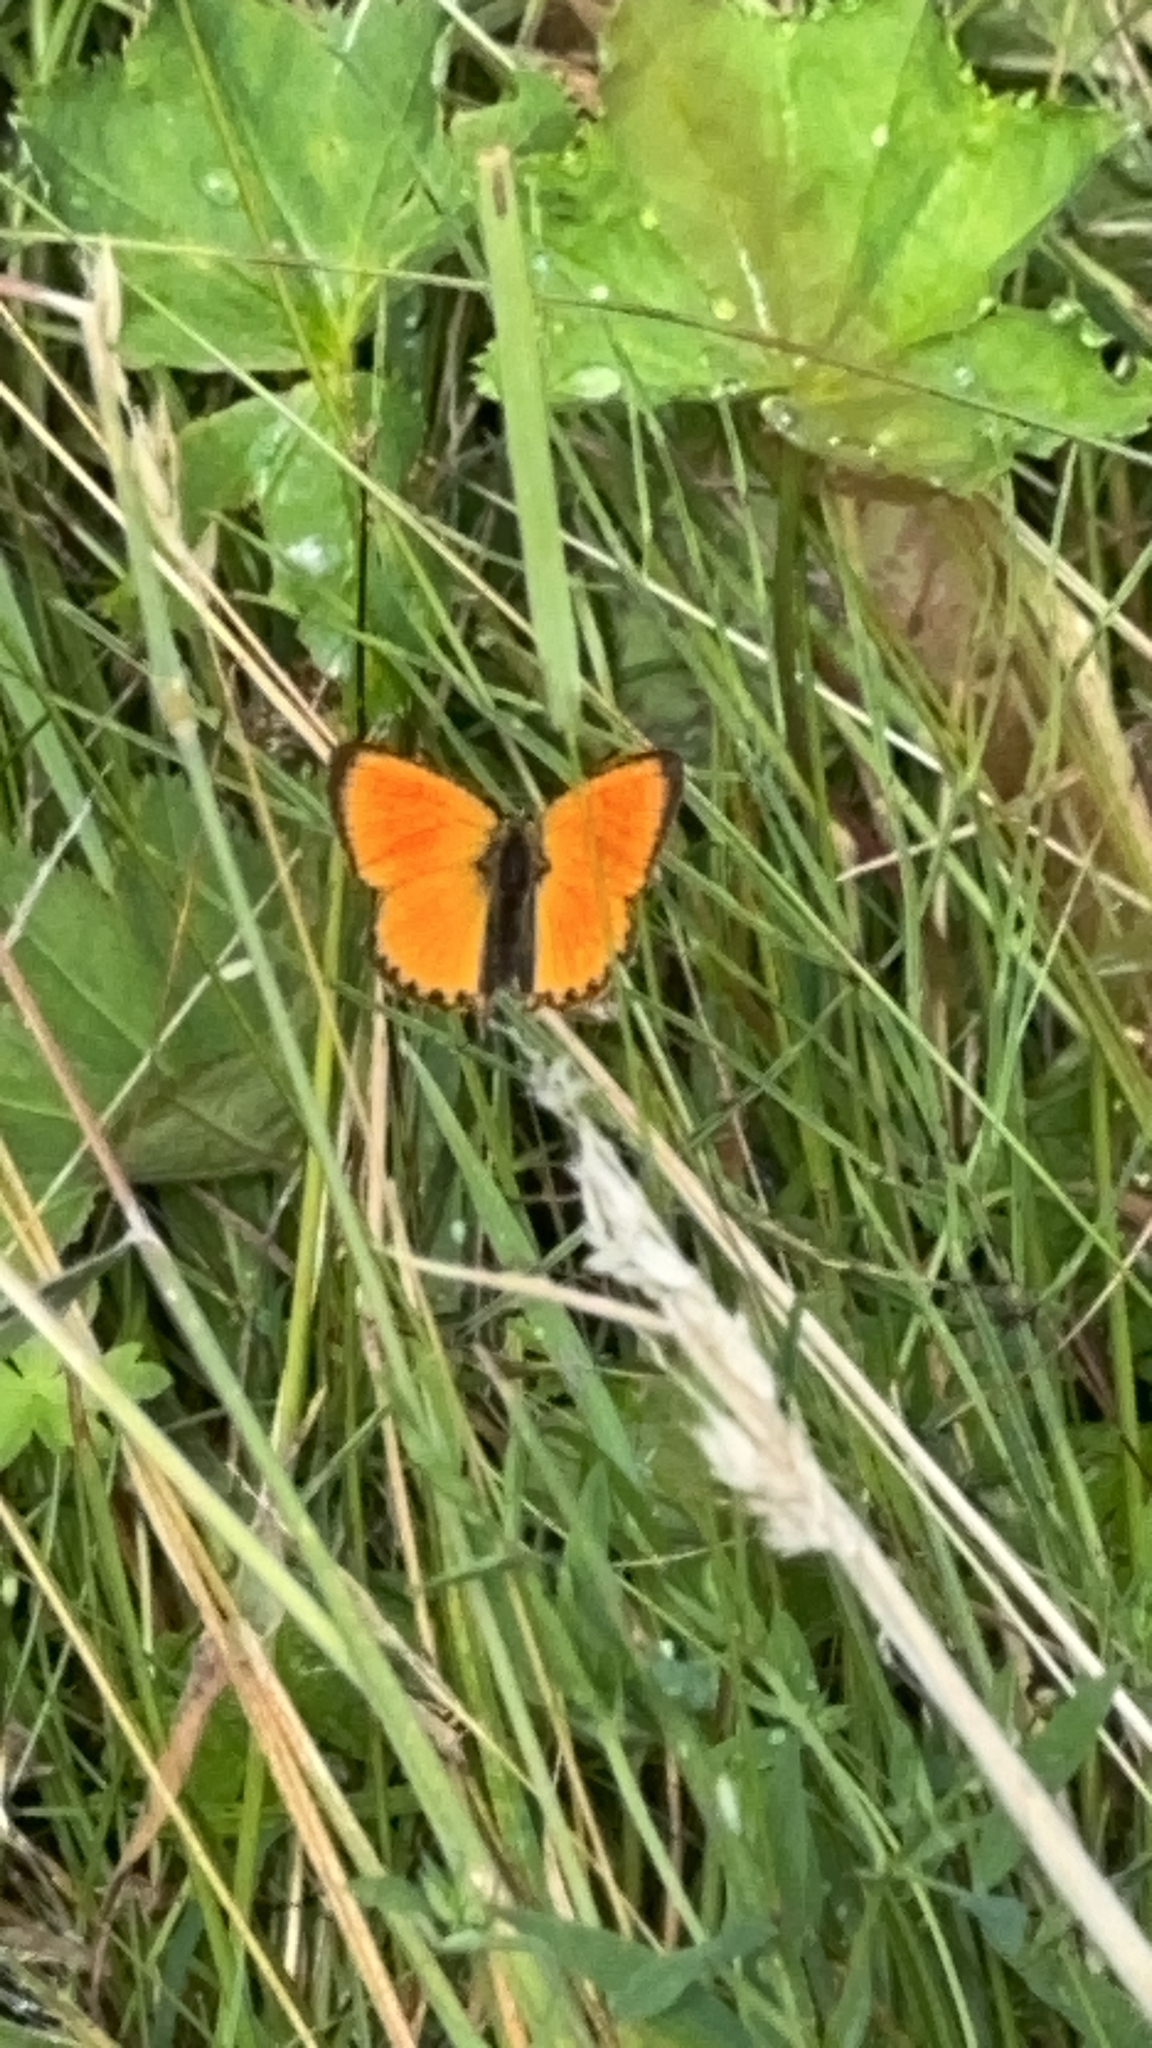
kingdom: Animalia
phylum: Arthropoda
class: Insecta
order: Lepidoptera
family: Lycaenidae
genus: Lycaena
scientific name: Lycaena virgaureae
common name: Scarce copper
